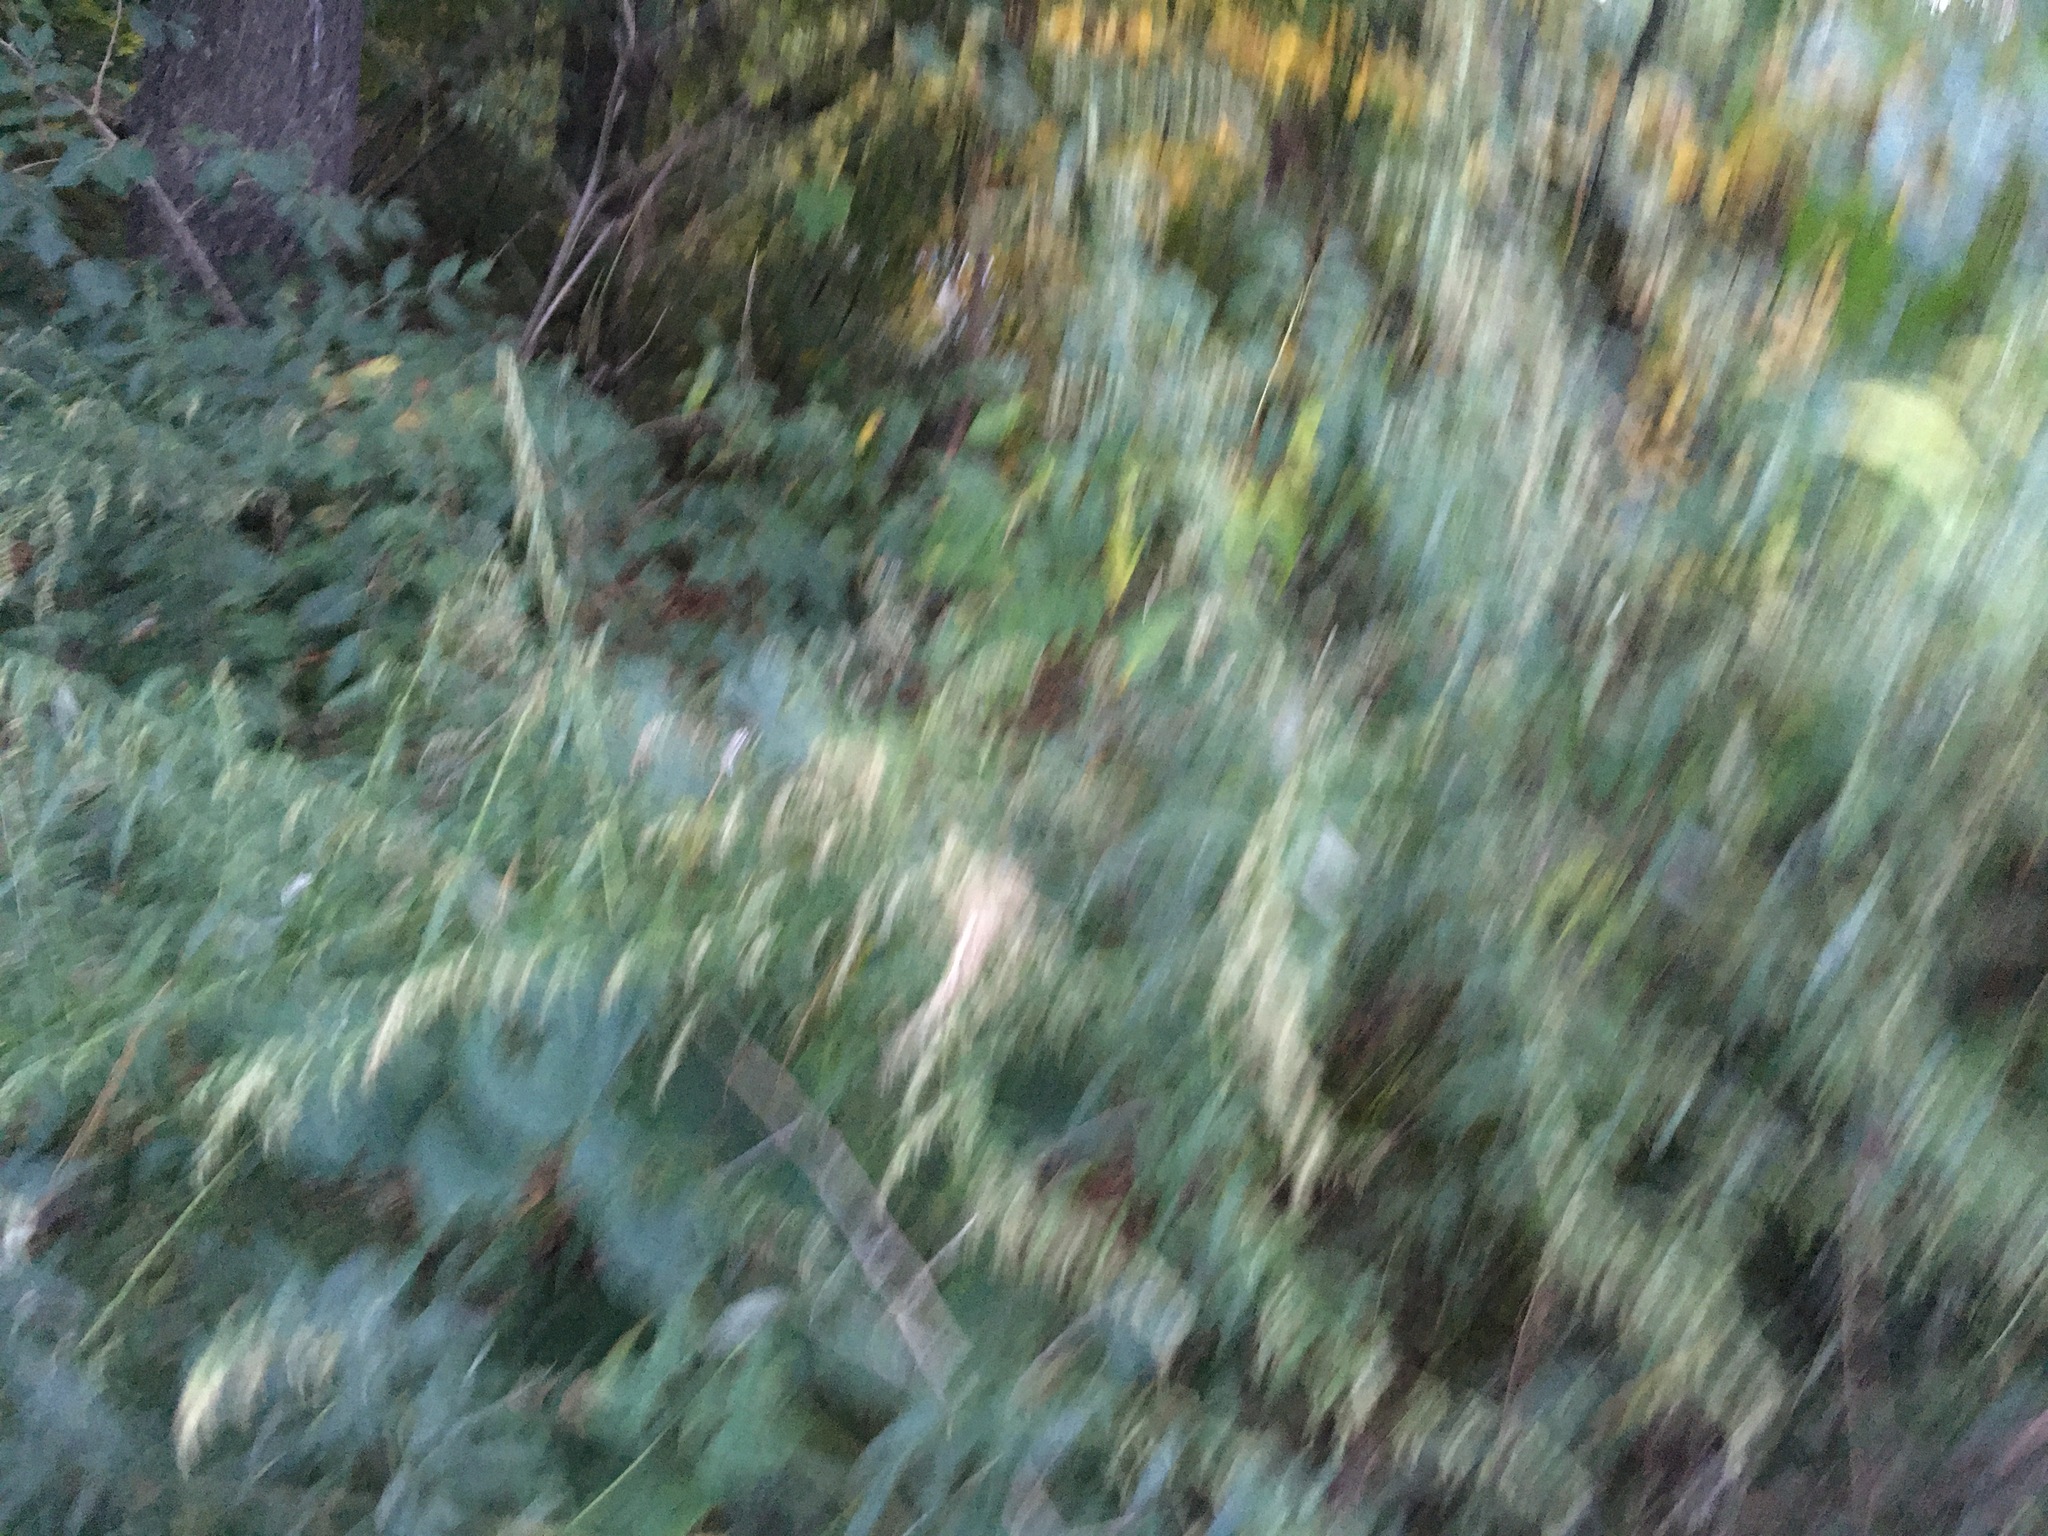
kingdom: Plantae
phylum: Tracheophyta
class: Magnoliopsida
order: Asterales
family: Asteraceae
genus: Artemisia
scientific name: Artemisia vulgaris
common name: Mugwort
